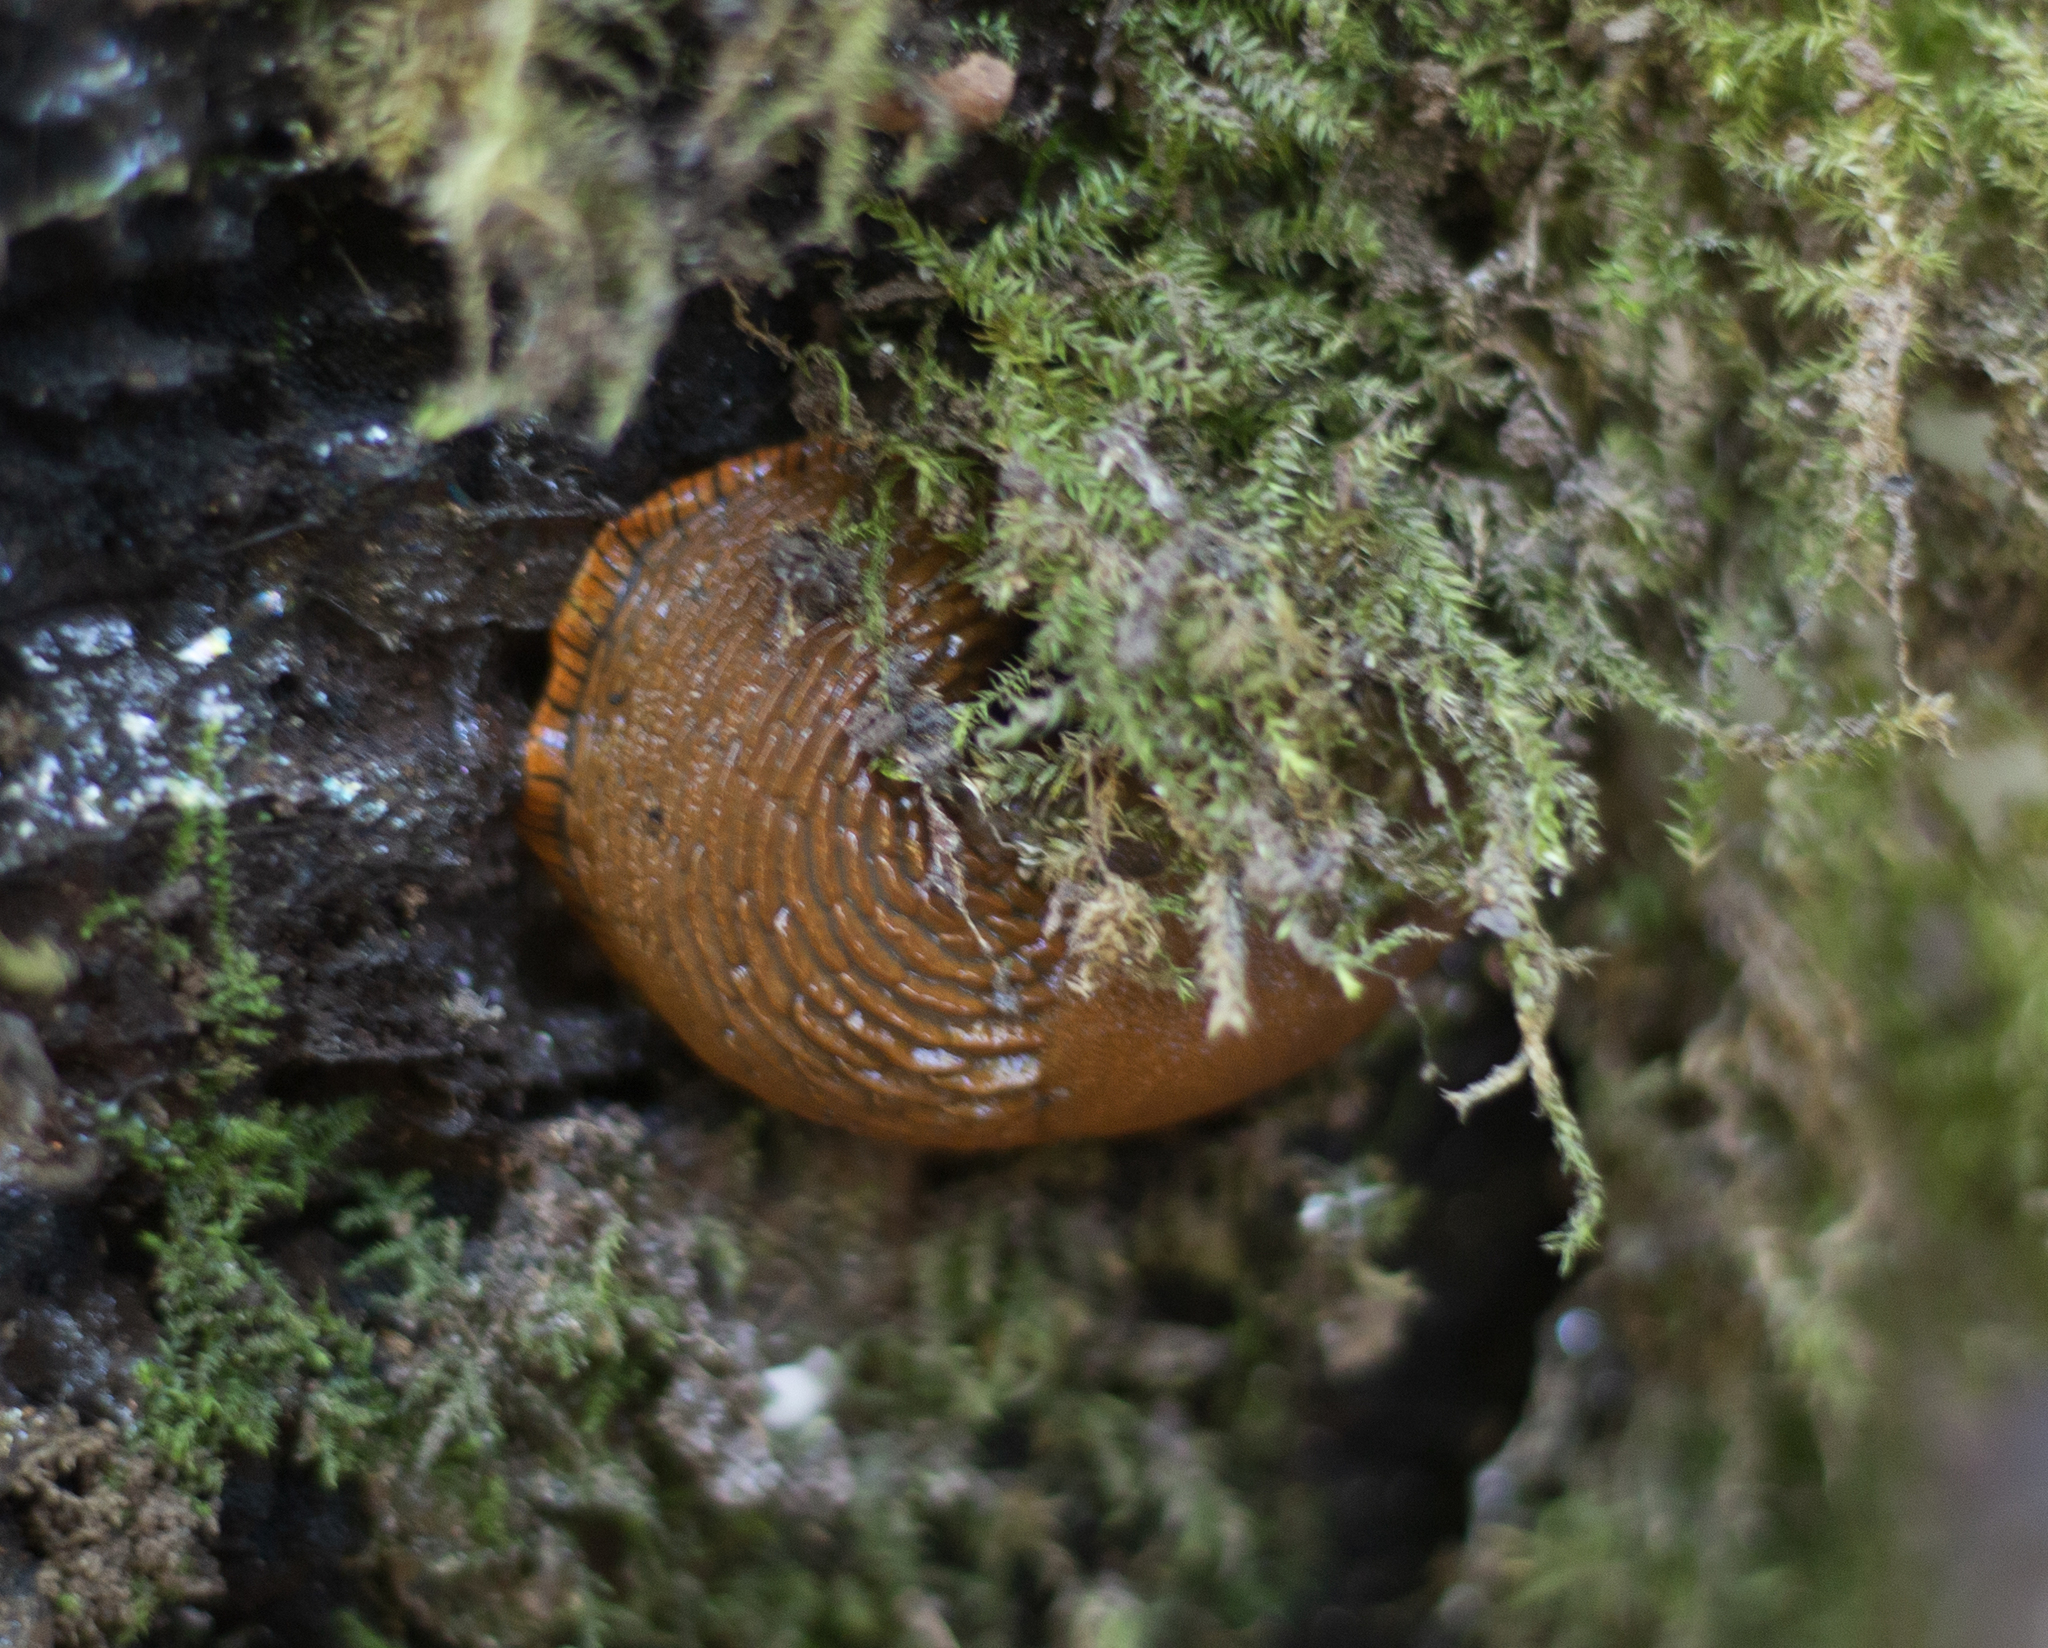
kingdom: Animalia
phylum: Mollusca
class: Gastropoda
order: Stylommatophora
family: Arionidae
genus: Arion
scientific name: Arion
